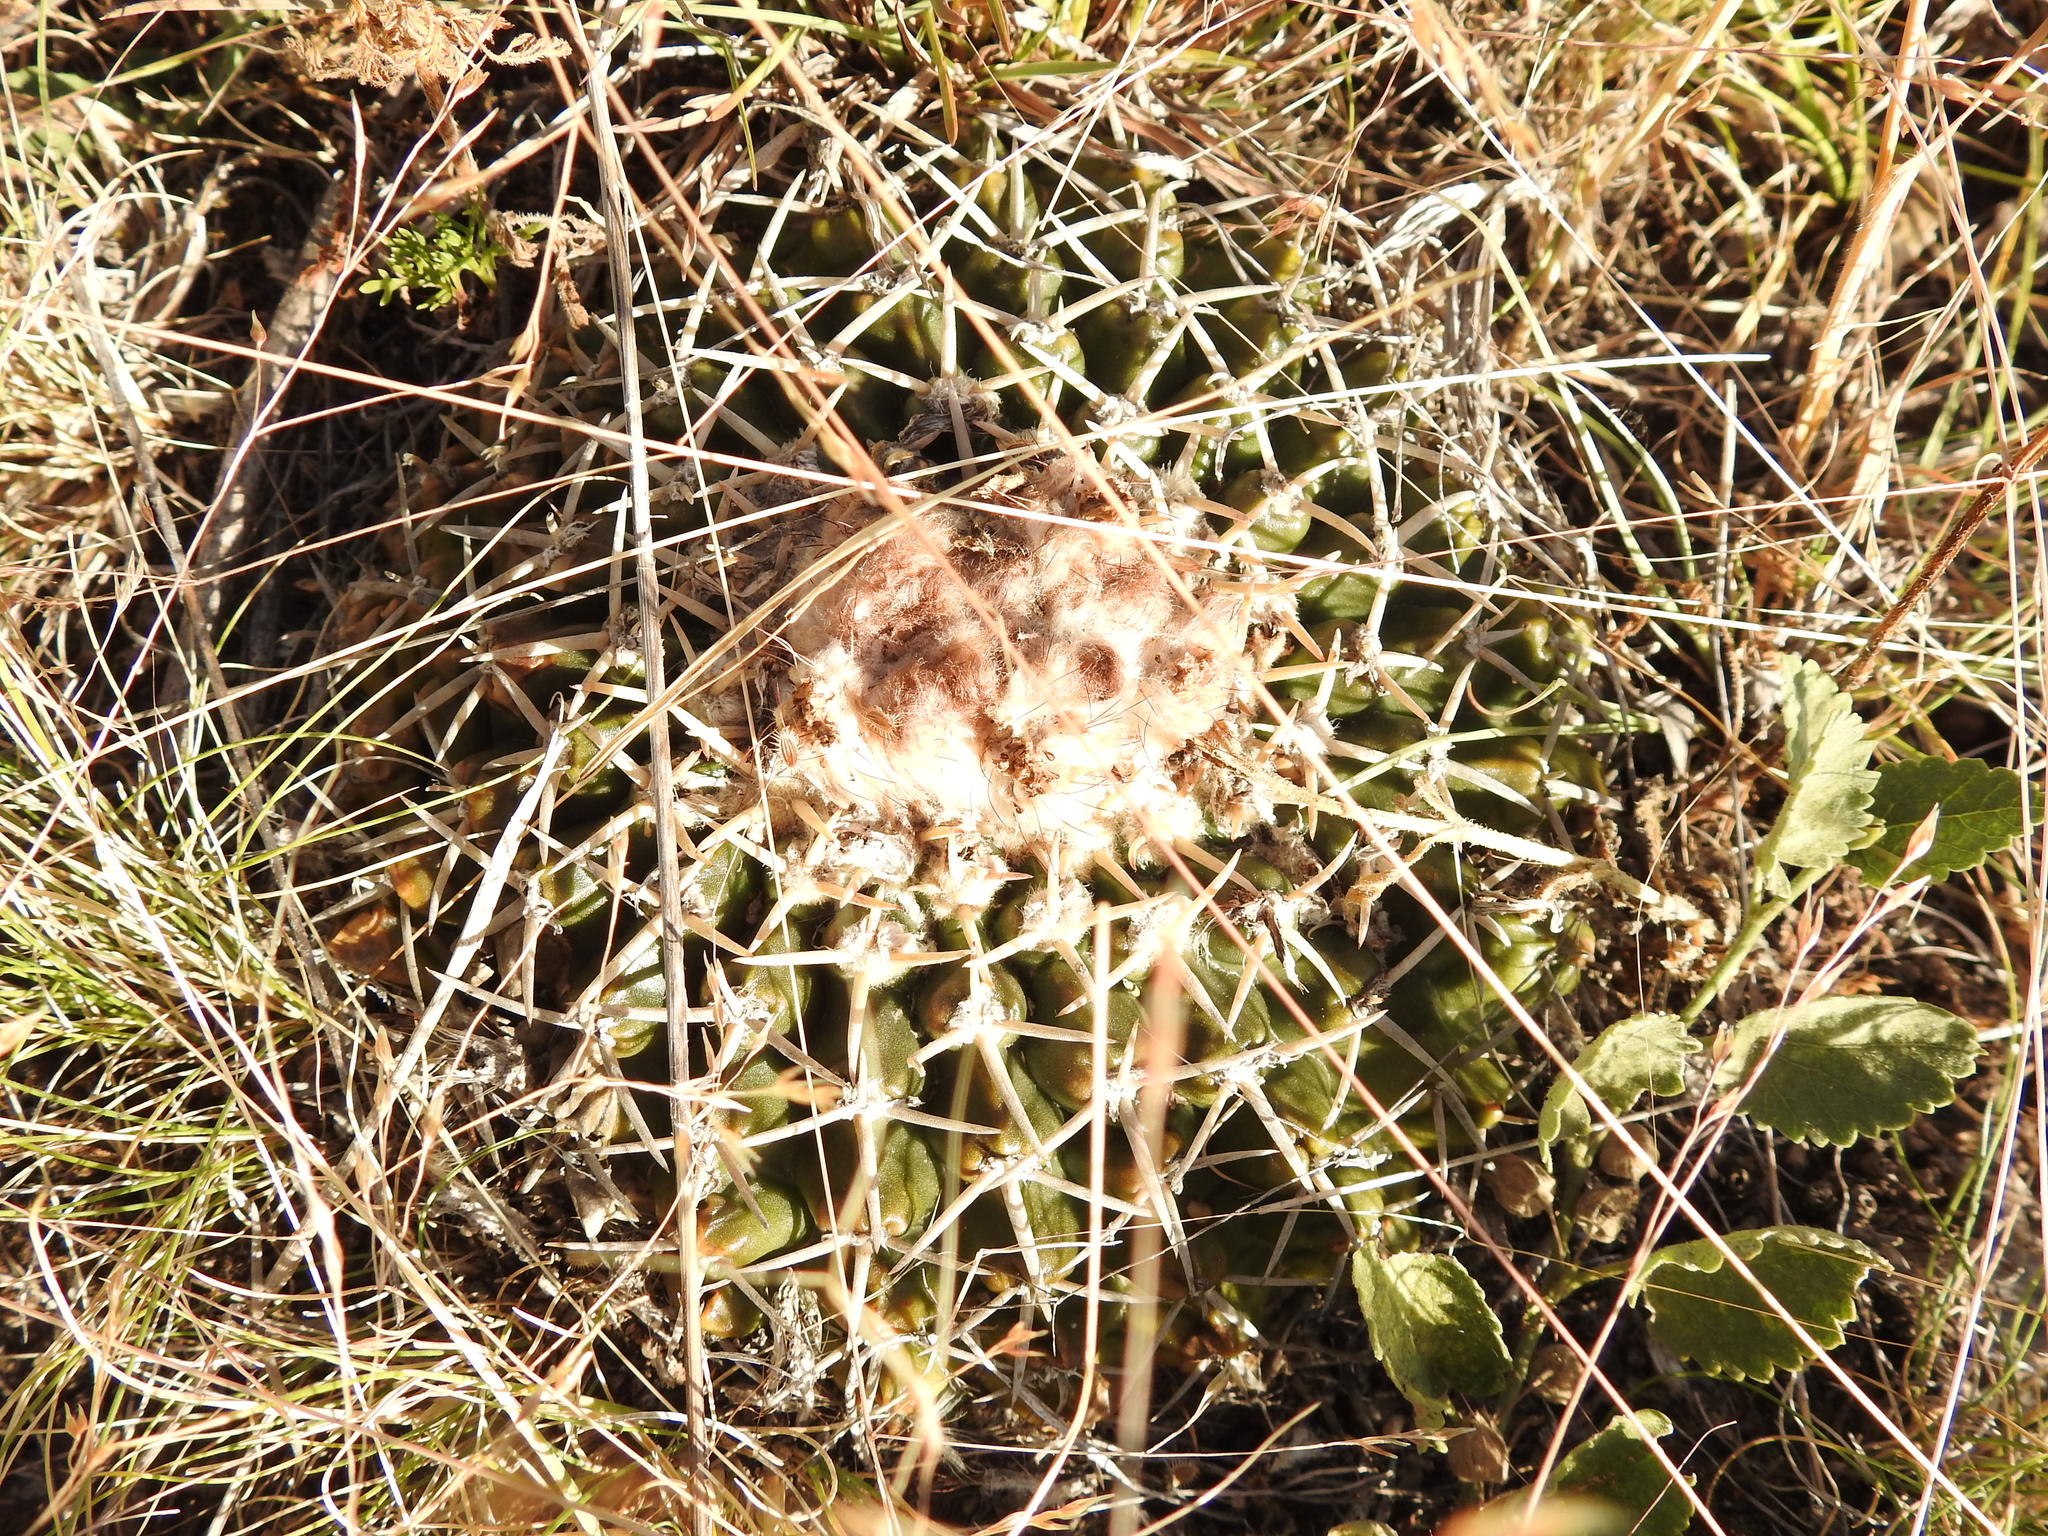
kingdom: Plantae
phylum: Tracheophyta
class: Magnoliopsida
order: Caryophyllales
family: Cactaceae
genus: Parodia
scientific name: Parodia erinacea
